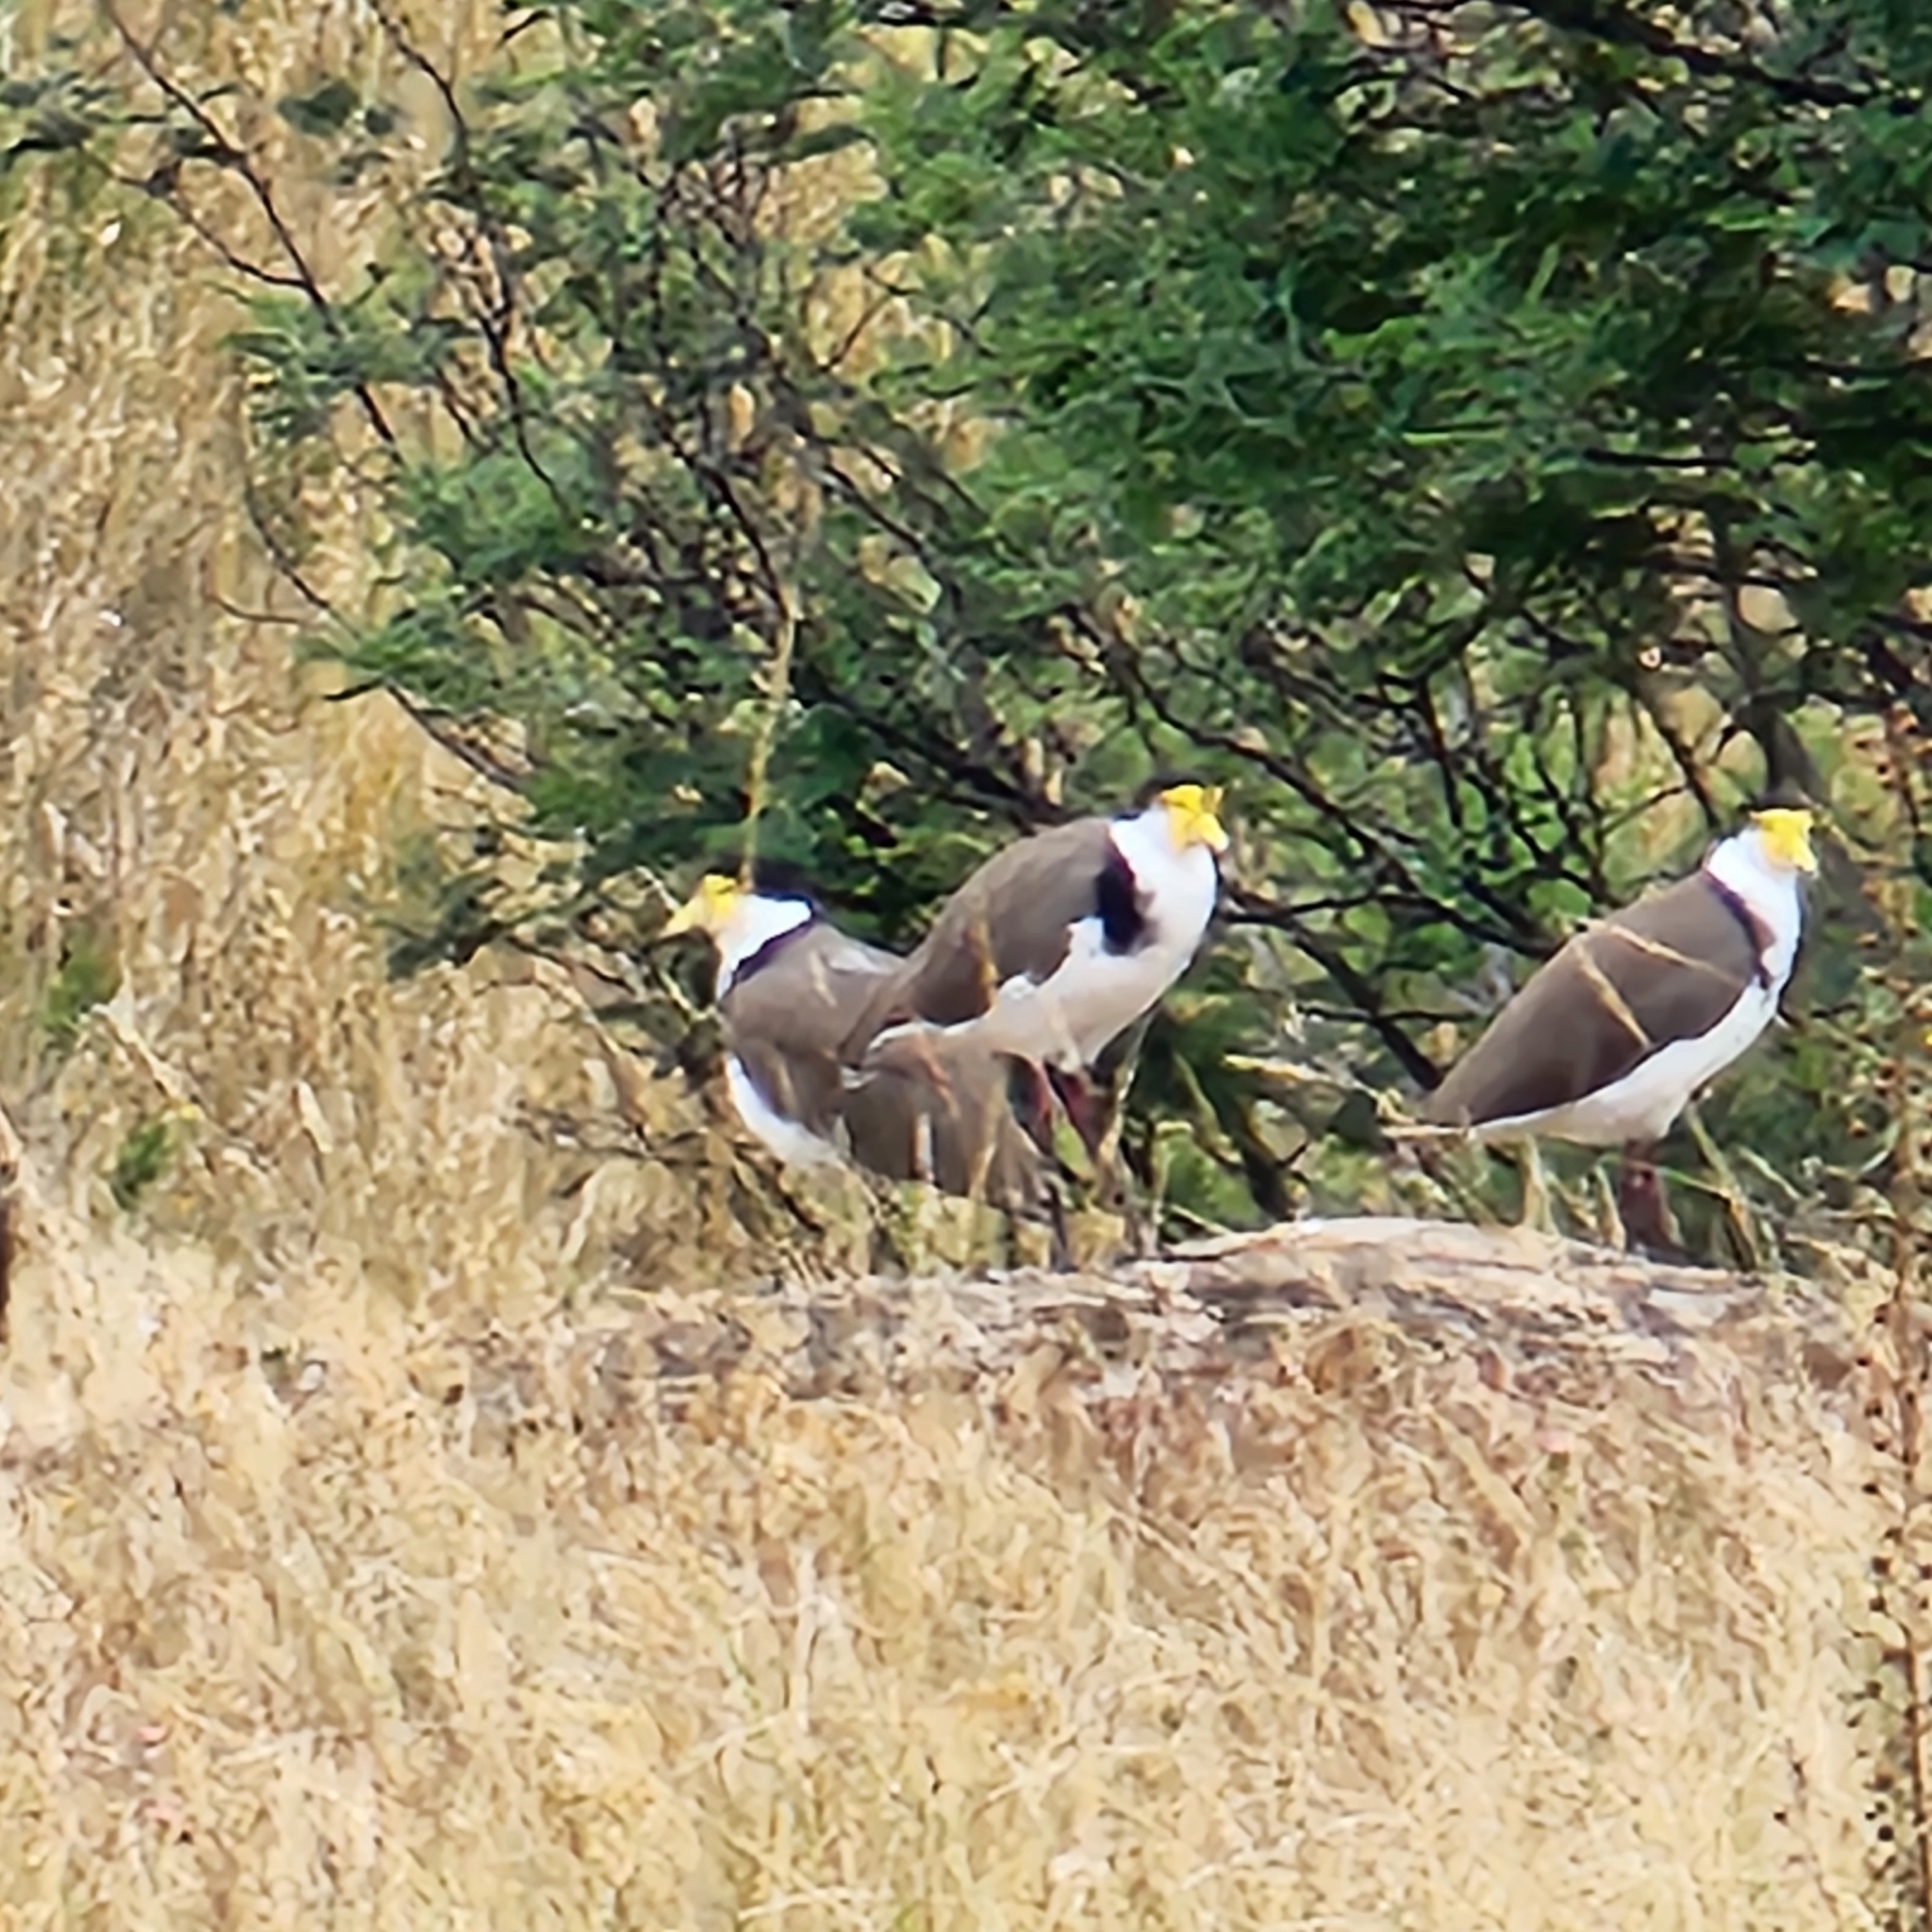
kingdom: Animalia
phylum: Chordata
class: Aves
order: Charadriiformes
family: Charadriidae
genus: Vanellus
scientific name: Vanellus miles
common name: Masked lapwing
